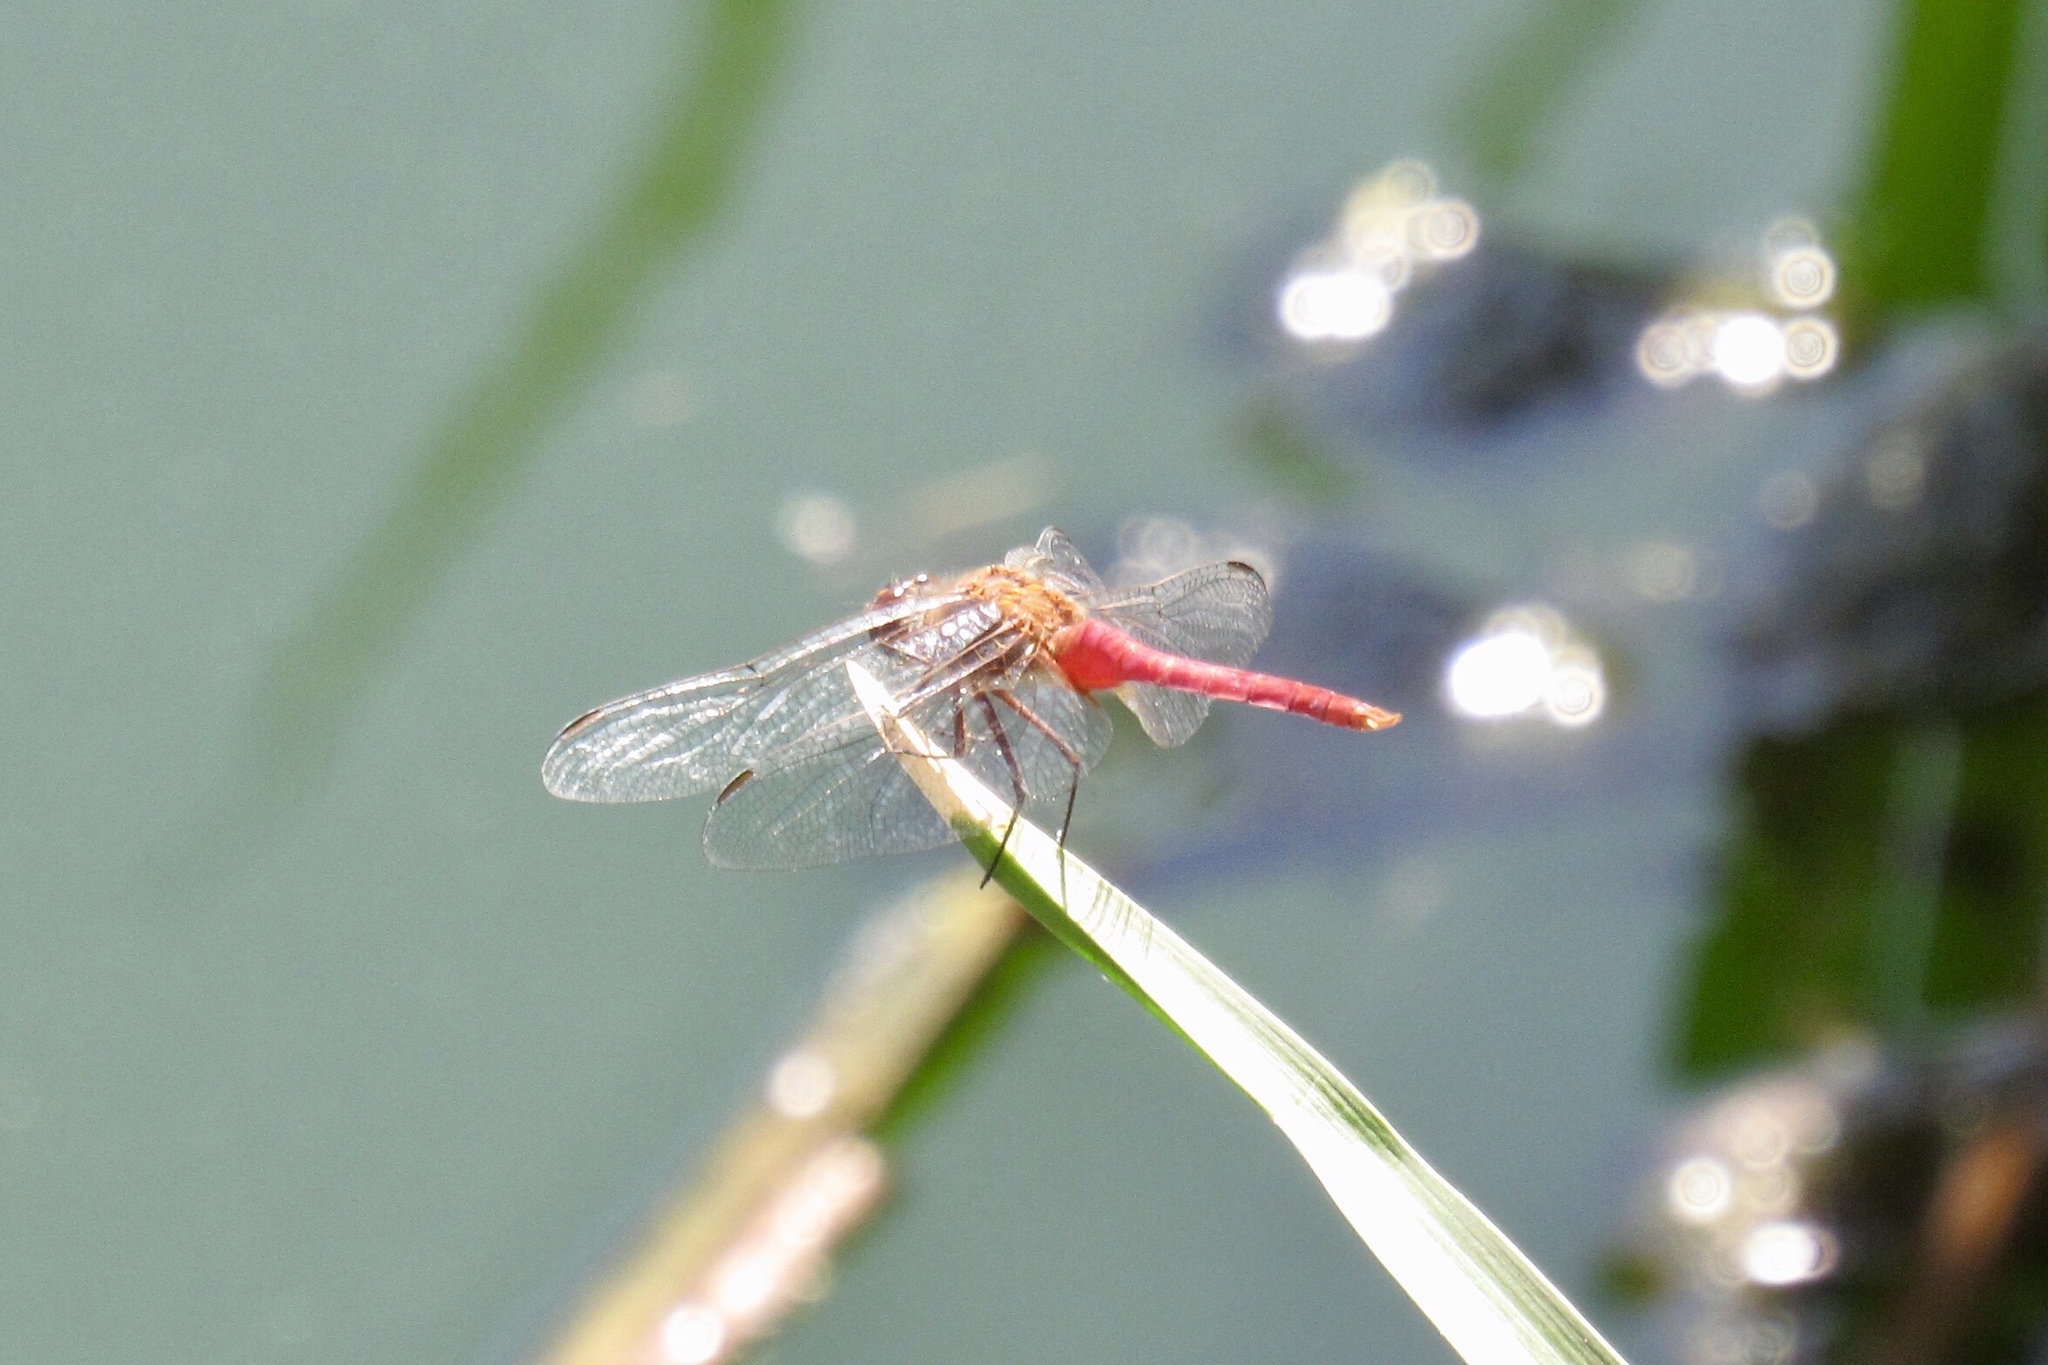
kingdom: Animalia
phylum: Arthropoda
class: Insecta
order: Odonata
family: Libellulidae
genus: Brachymesia
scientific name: Brachymesia furcata
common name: Red-taled pennant
